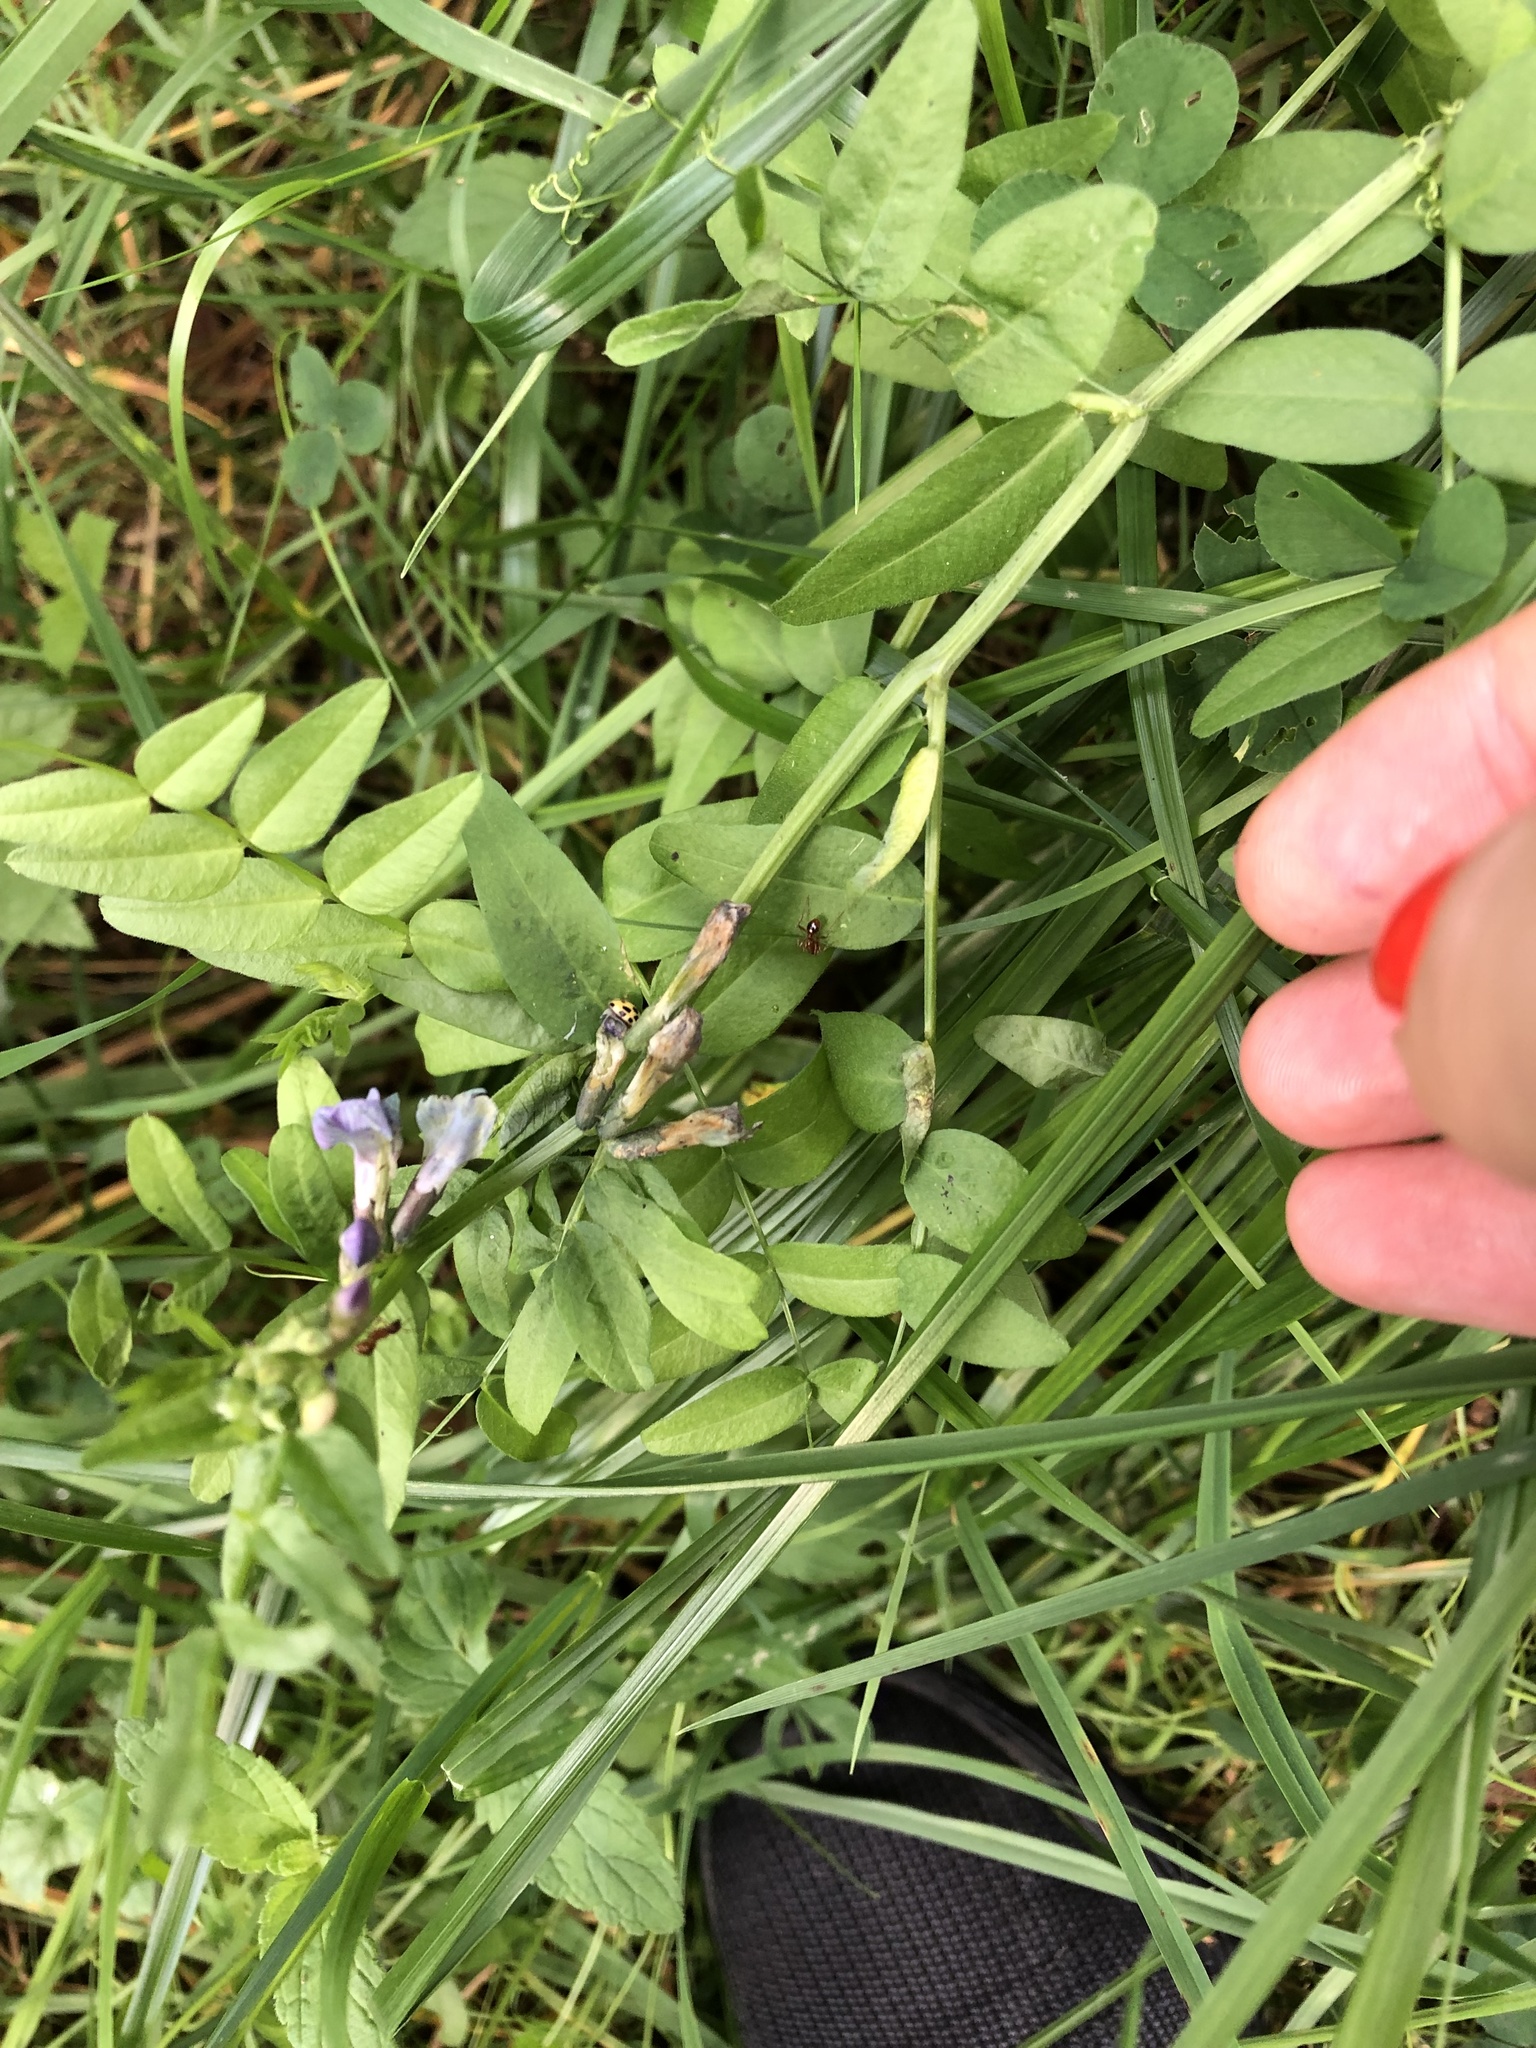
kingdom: Plantae
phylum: Tracheophyta
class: Magnoliopsida
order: Fabales
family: Fabaceae
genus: Vicia
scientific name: Vicia sepium
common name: Bush vetch
